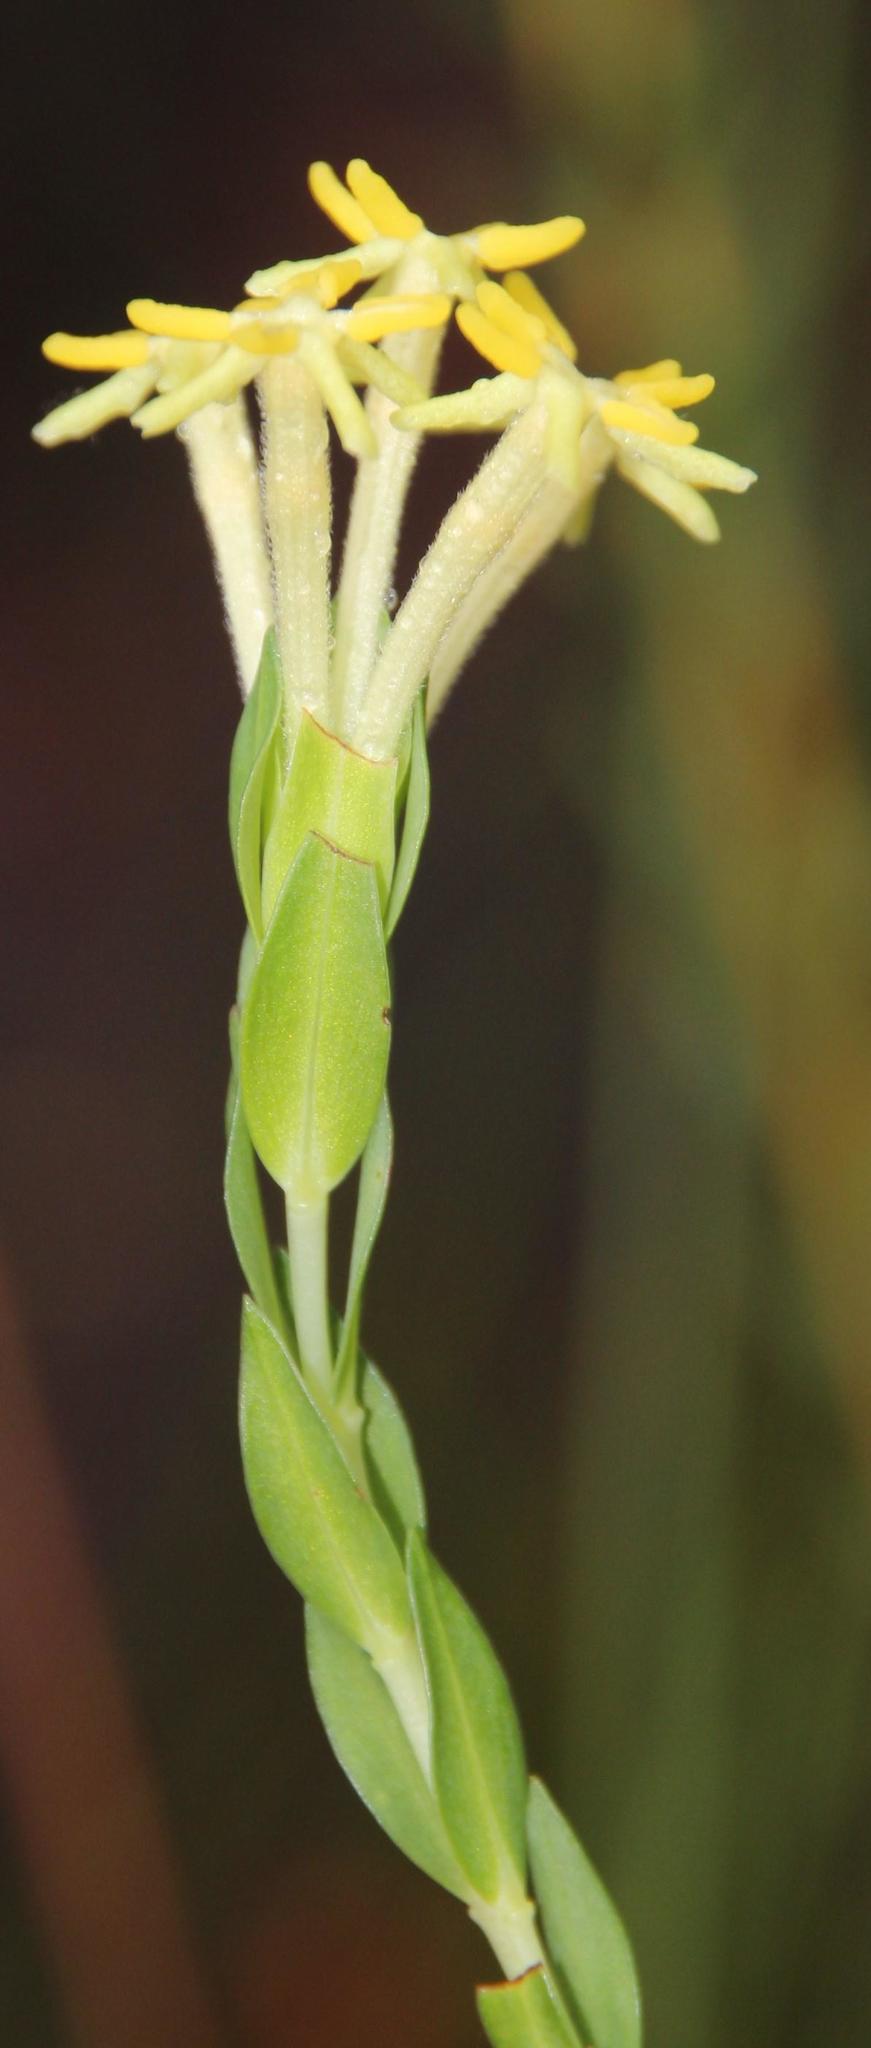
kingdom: Plantae
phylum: Tracheophyta
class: Magnoliopsida
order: Malvales
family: Thymelaeaceae
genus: Gnidia
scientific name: Gnidia oppositifolia
